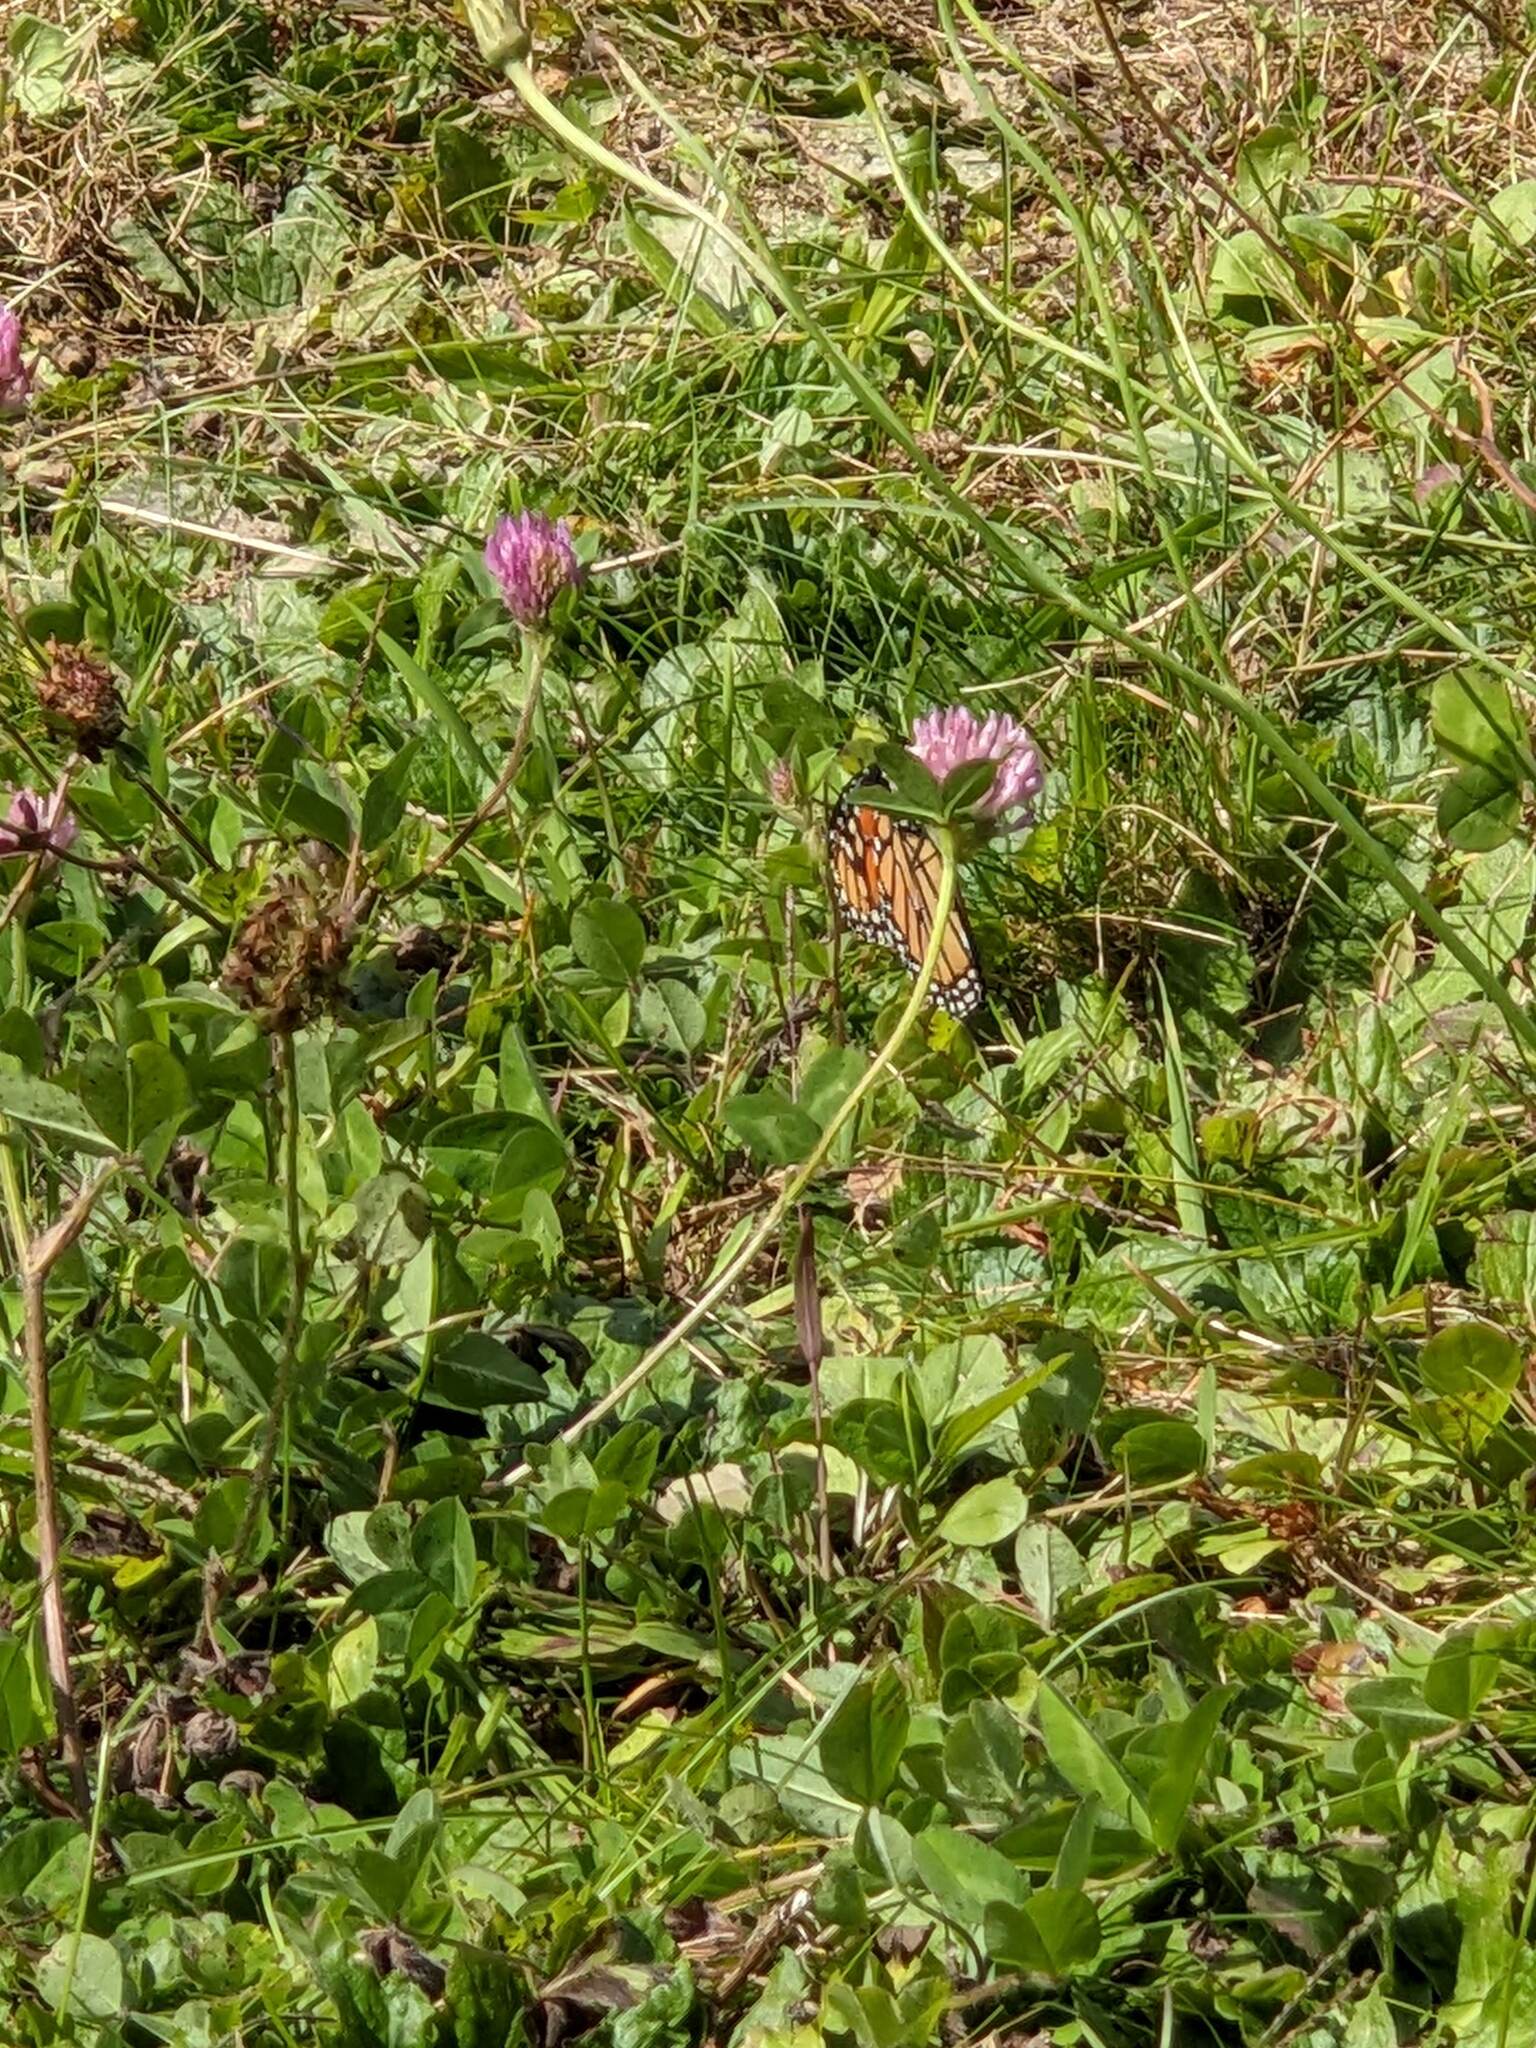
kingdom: Plantae
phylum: Tracheophyta
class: Magnoliopsida
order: Fabales
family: Fabaceae
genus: Trifolium
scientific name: Trifolium pratense
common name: Red clover
